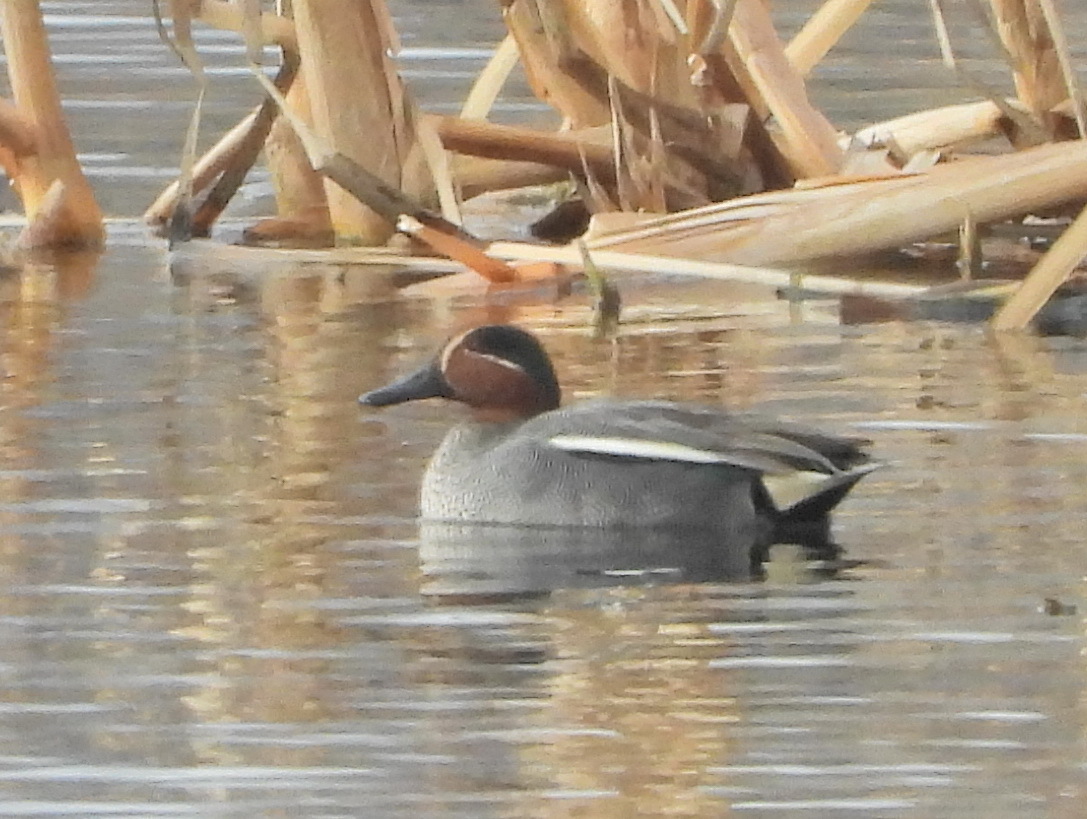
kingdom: Animalia
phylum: Chordata
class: Aves
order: Anseriformes
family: Anatidae
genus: Anas
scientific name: Anas crecca
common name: Eurasian teal
